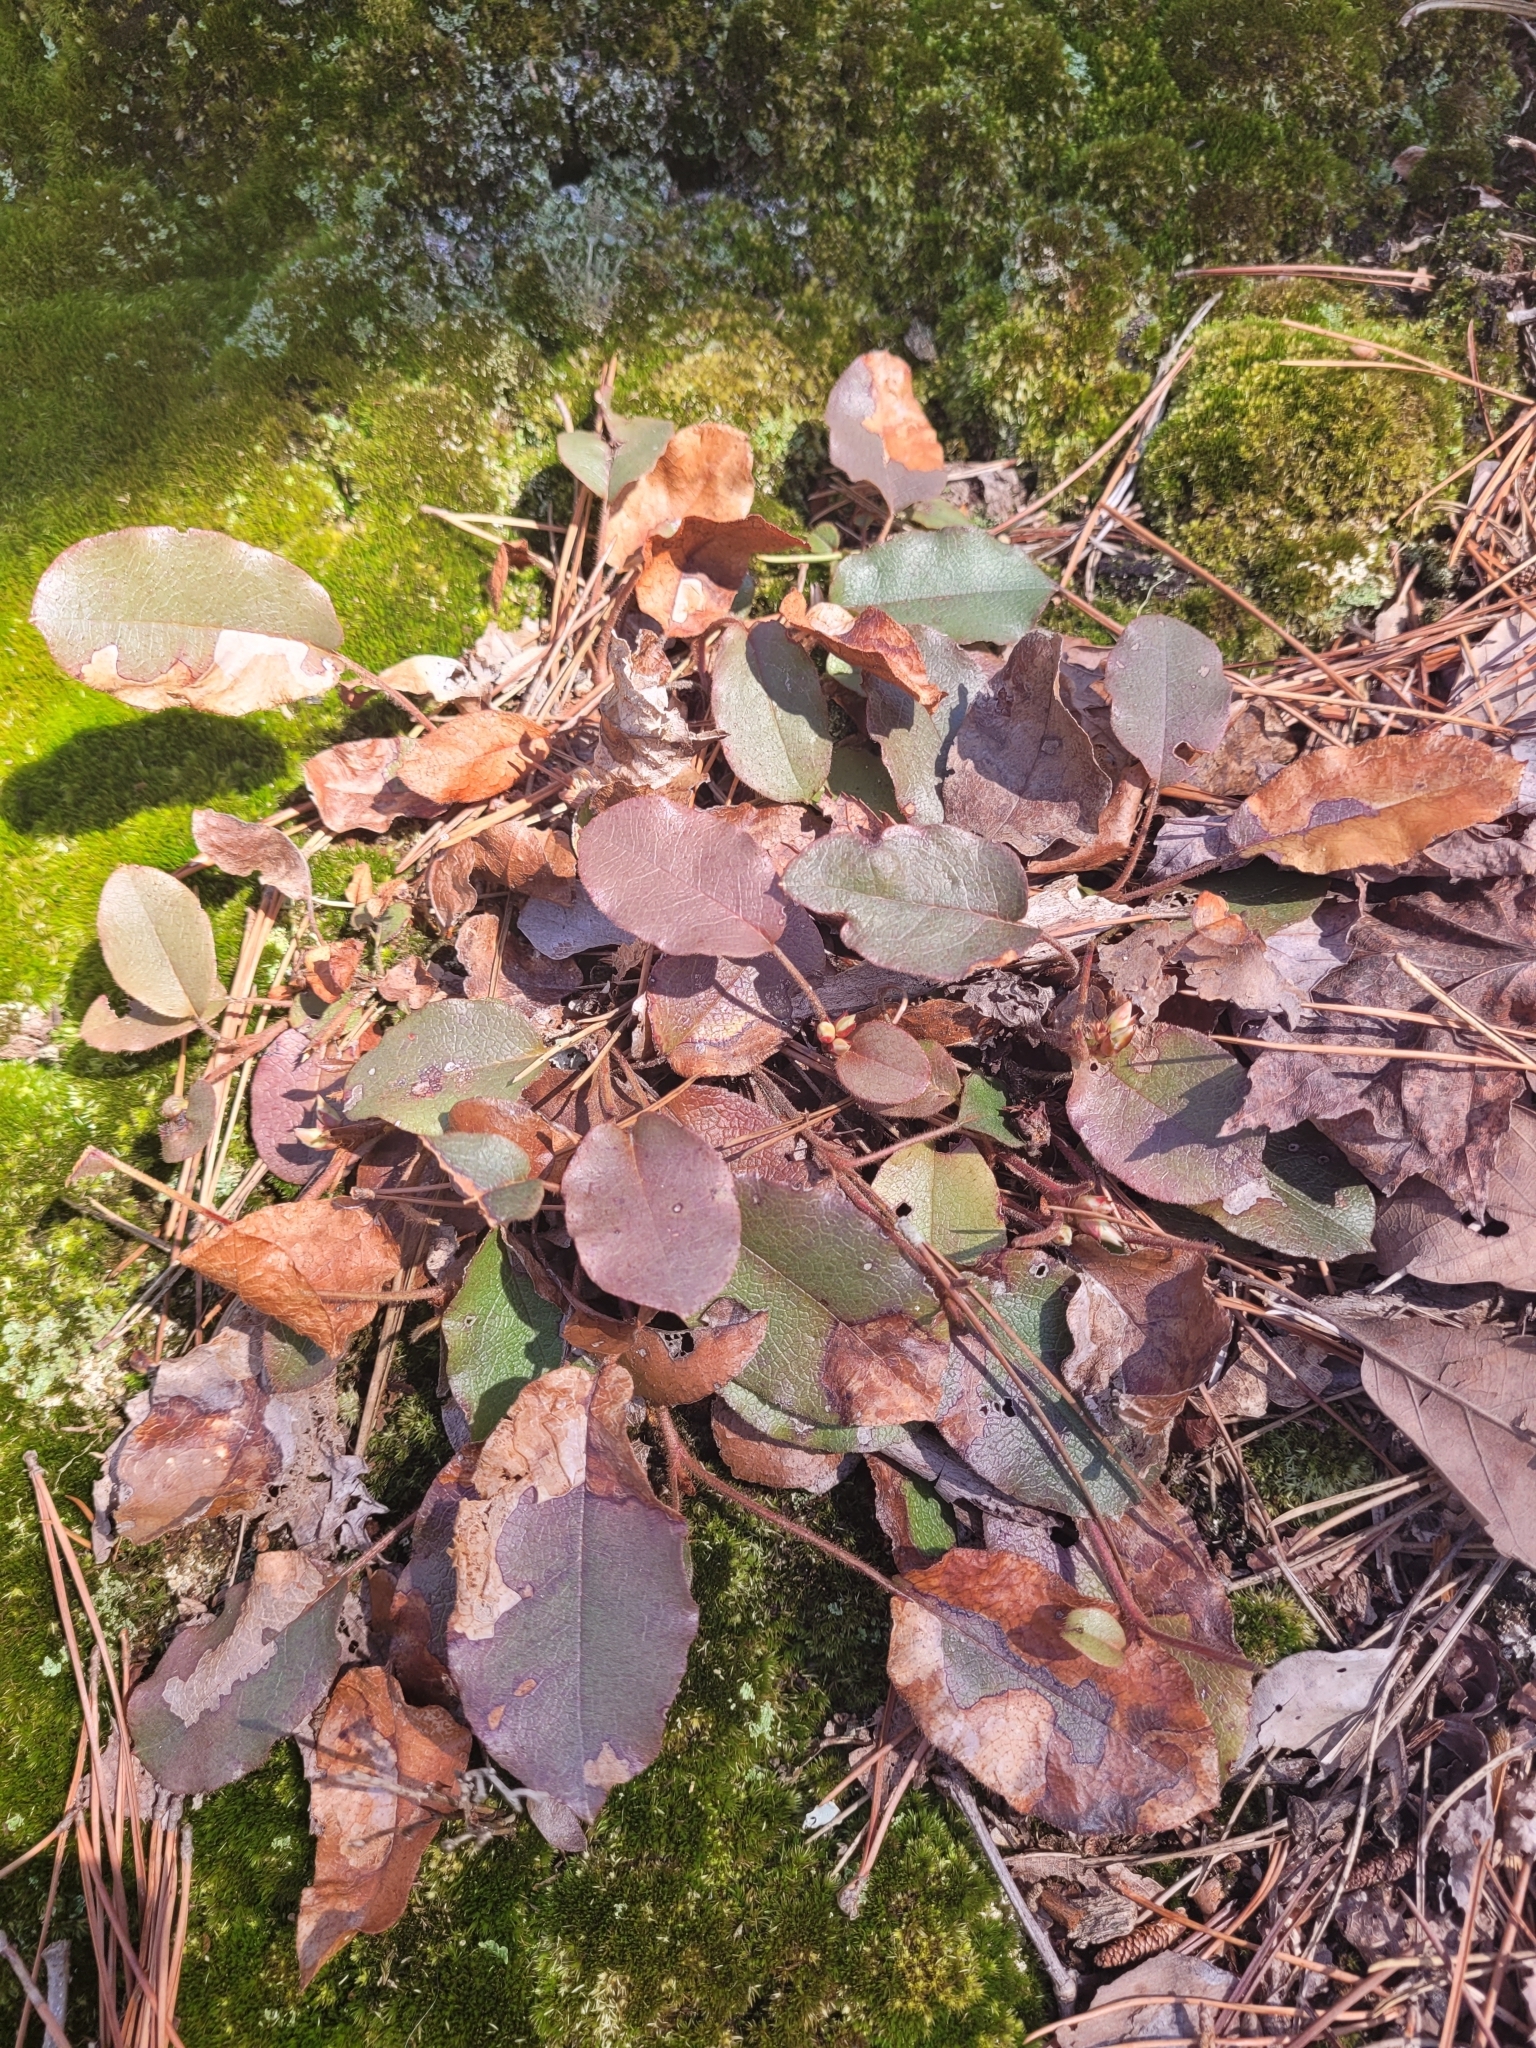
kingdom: Plantae
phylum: Tracheophyta
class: Magnoliopsida
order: Ericales
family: Ericaceae
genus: Epigaea
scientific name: Epigaea repens
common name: Gravelroot
